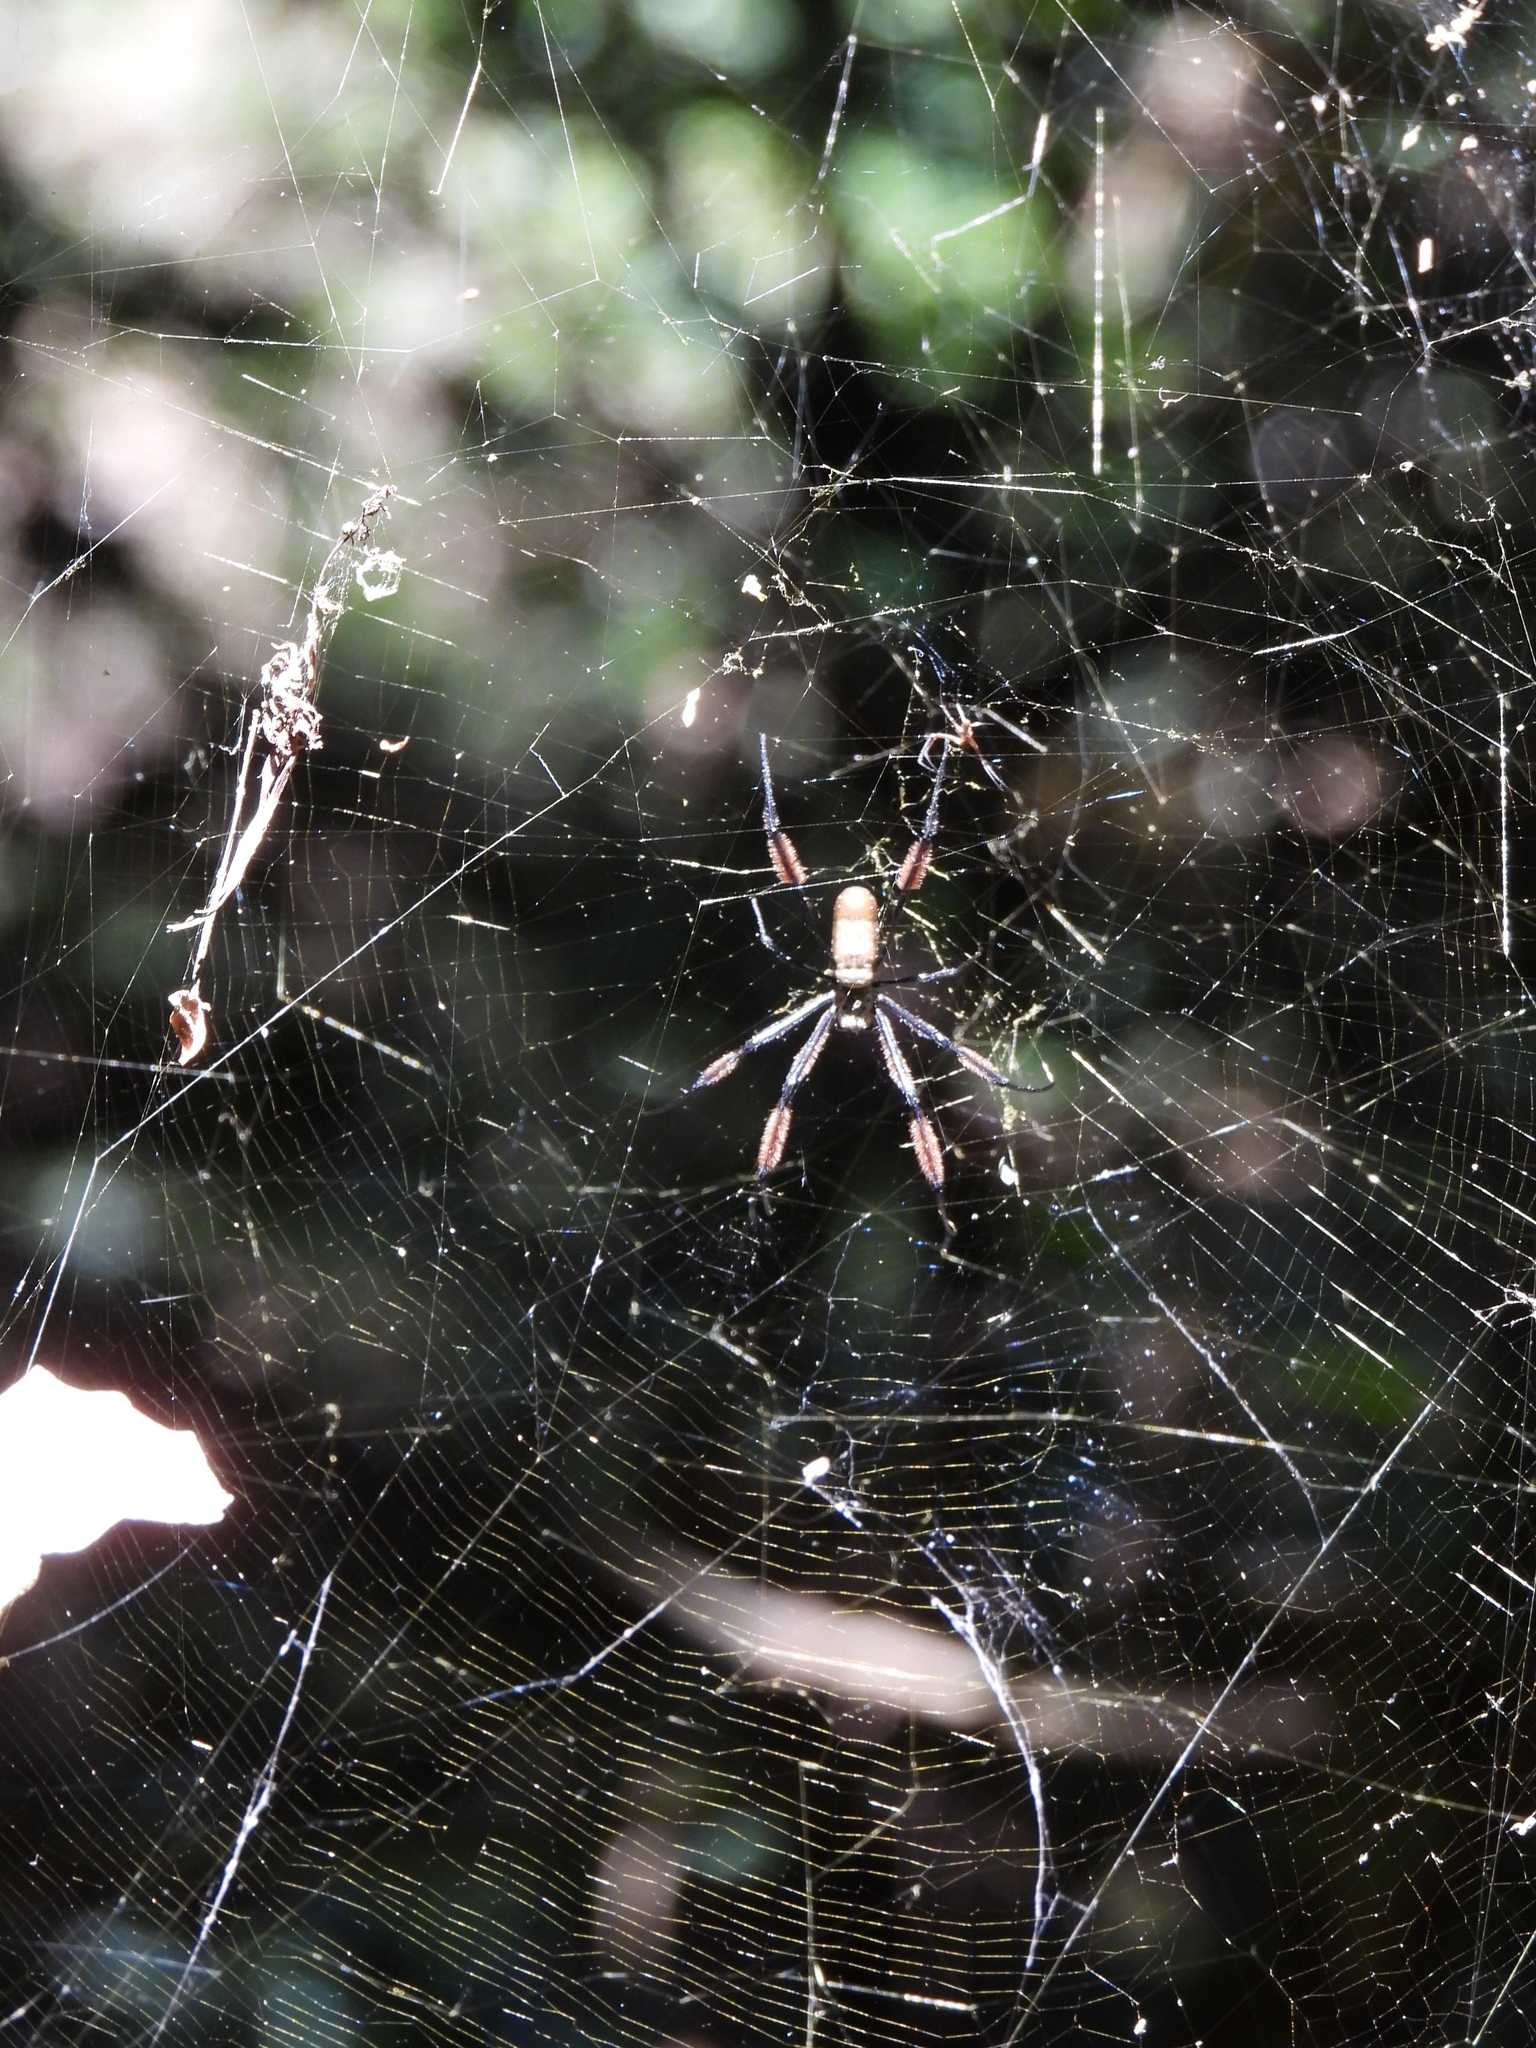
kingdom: Animalia
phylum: Arthropoda
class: Arachnida
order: Araneae
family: Araneidae
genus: Trichonephila
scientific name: Trichonephila fenestrata
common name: Hairy golden orb weaver
